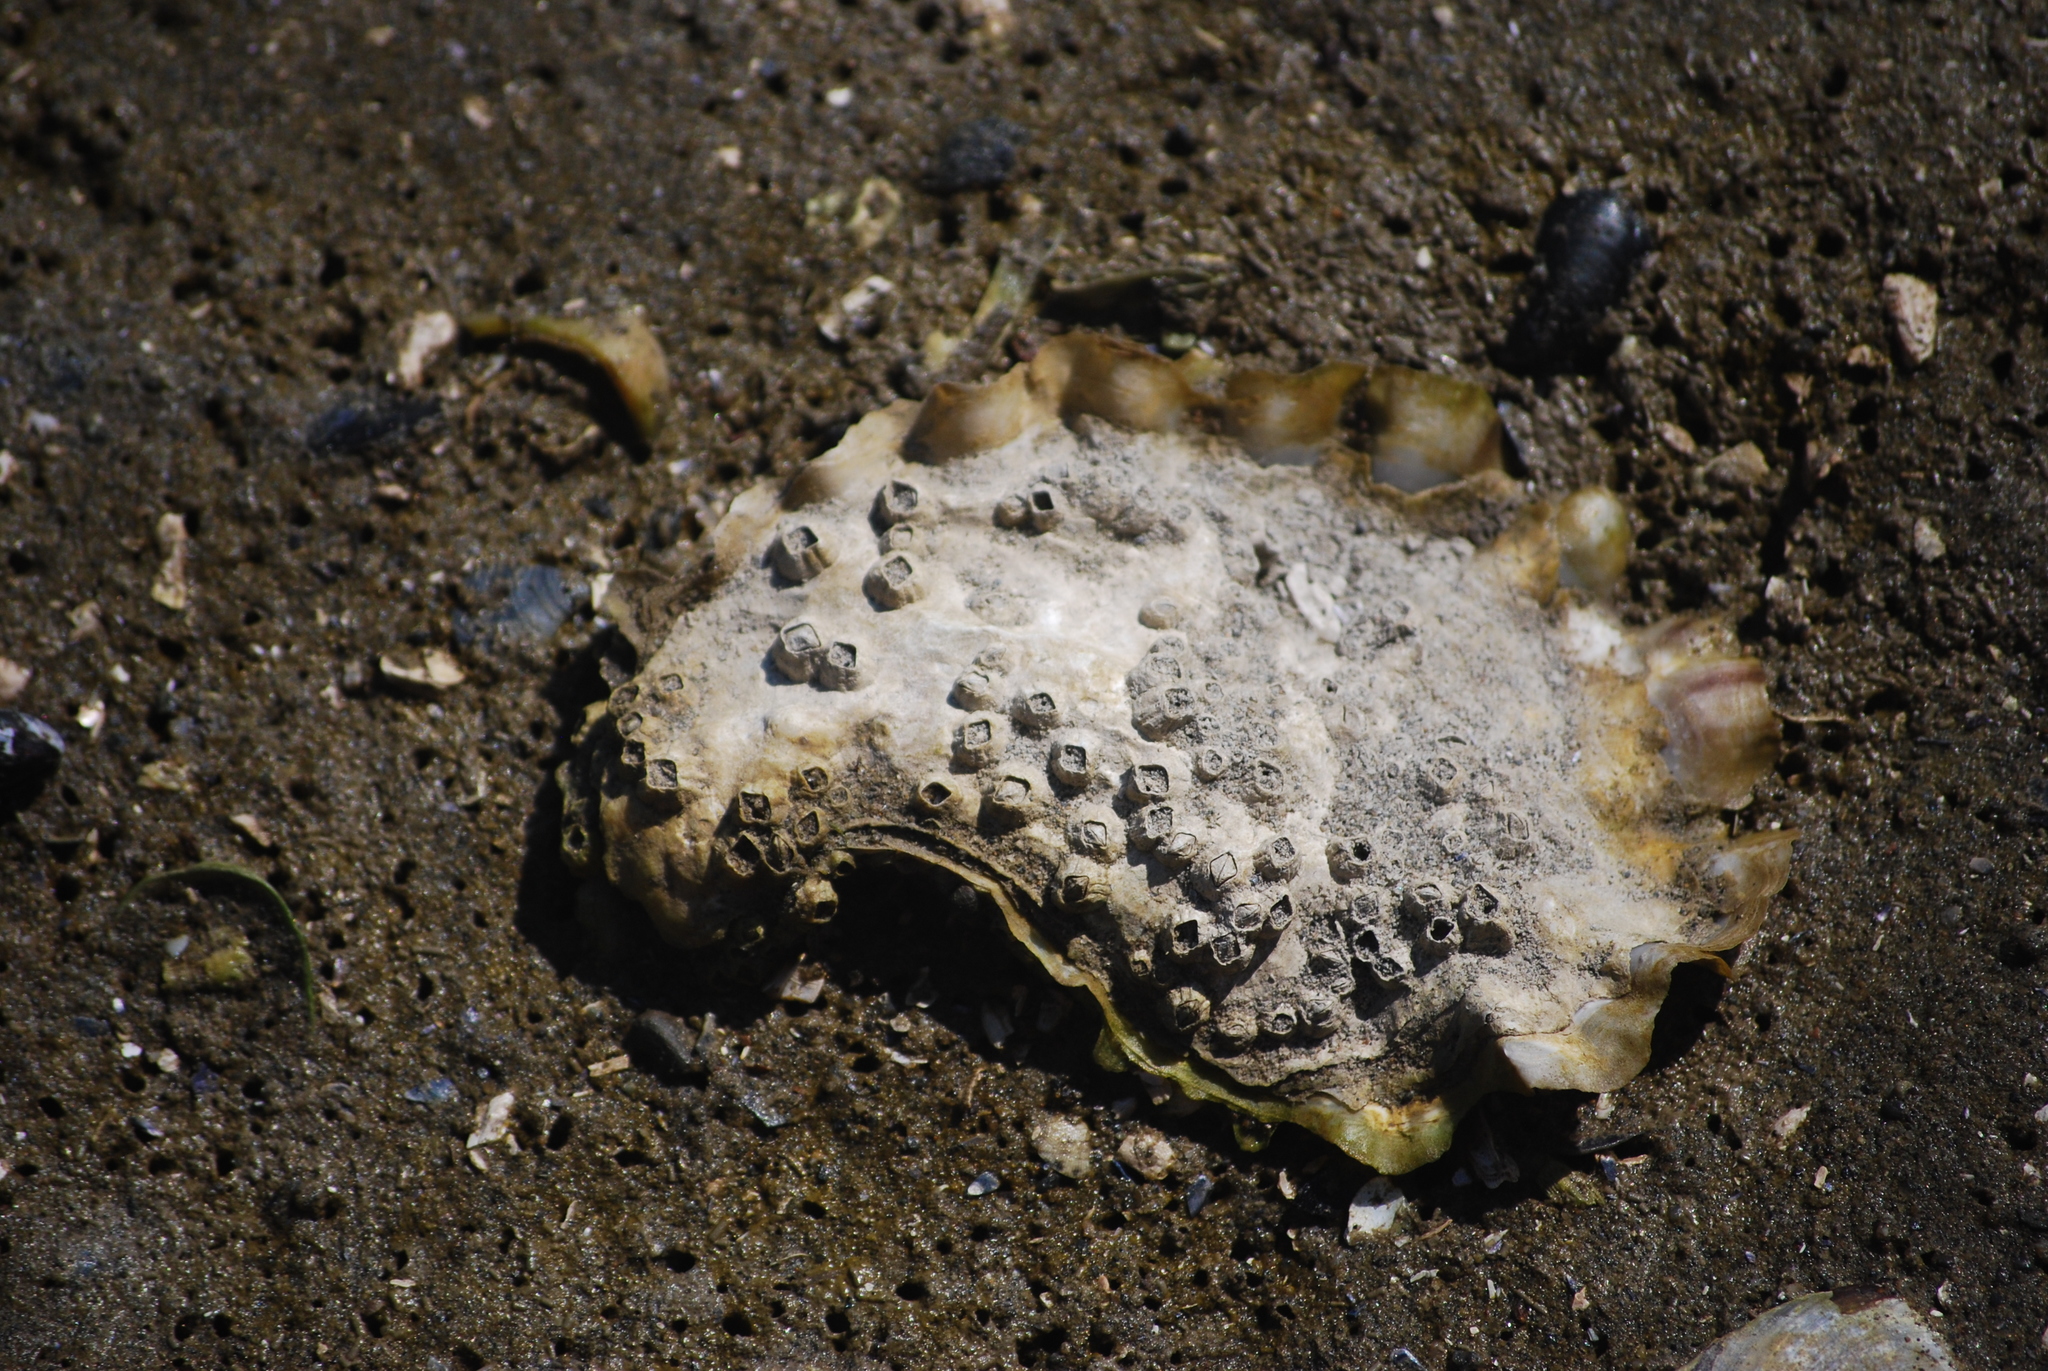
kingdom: Animalia
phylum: Mollusca
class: Bivalvia
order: Ostreida
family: Ostreidae
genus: Magallana
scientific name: Magallana gigas
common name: Pacific oyster
